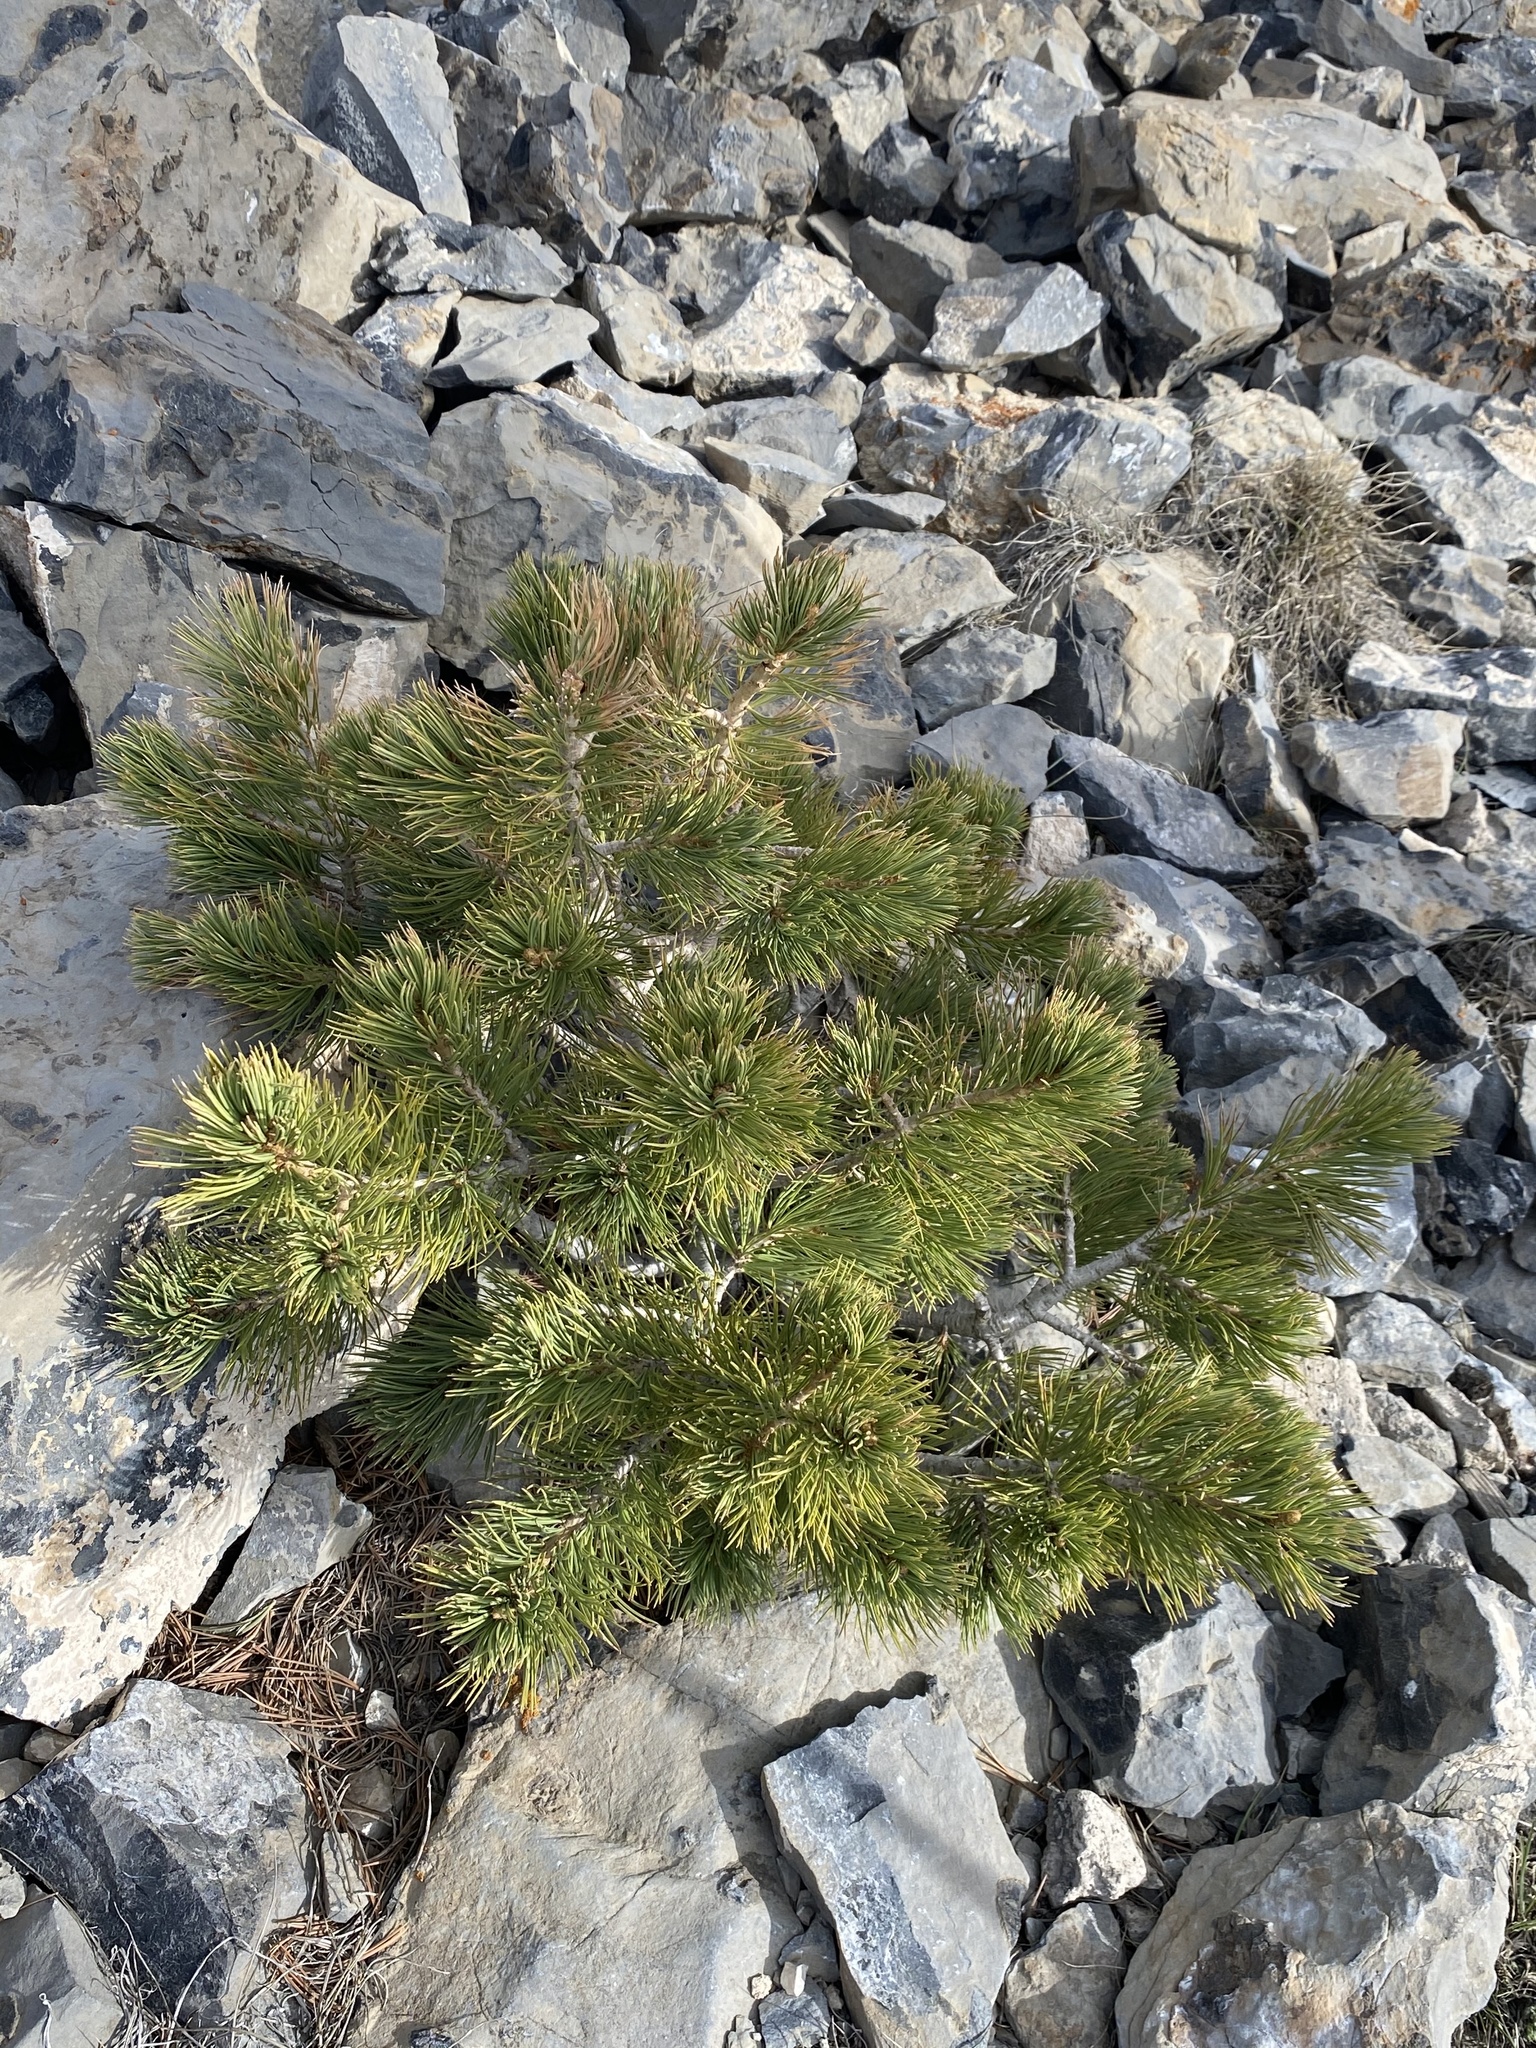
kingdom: Plantae
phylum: Tracheophyta
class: Pinopsida
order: Pinales
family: Pinaceae
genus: Pinus
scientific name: Pinus flexilis
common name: Limber pine
